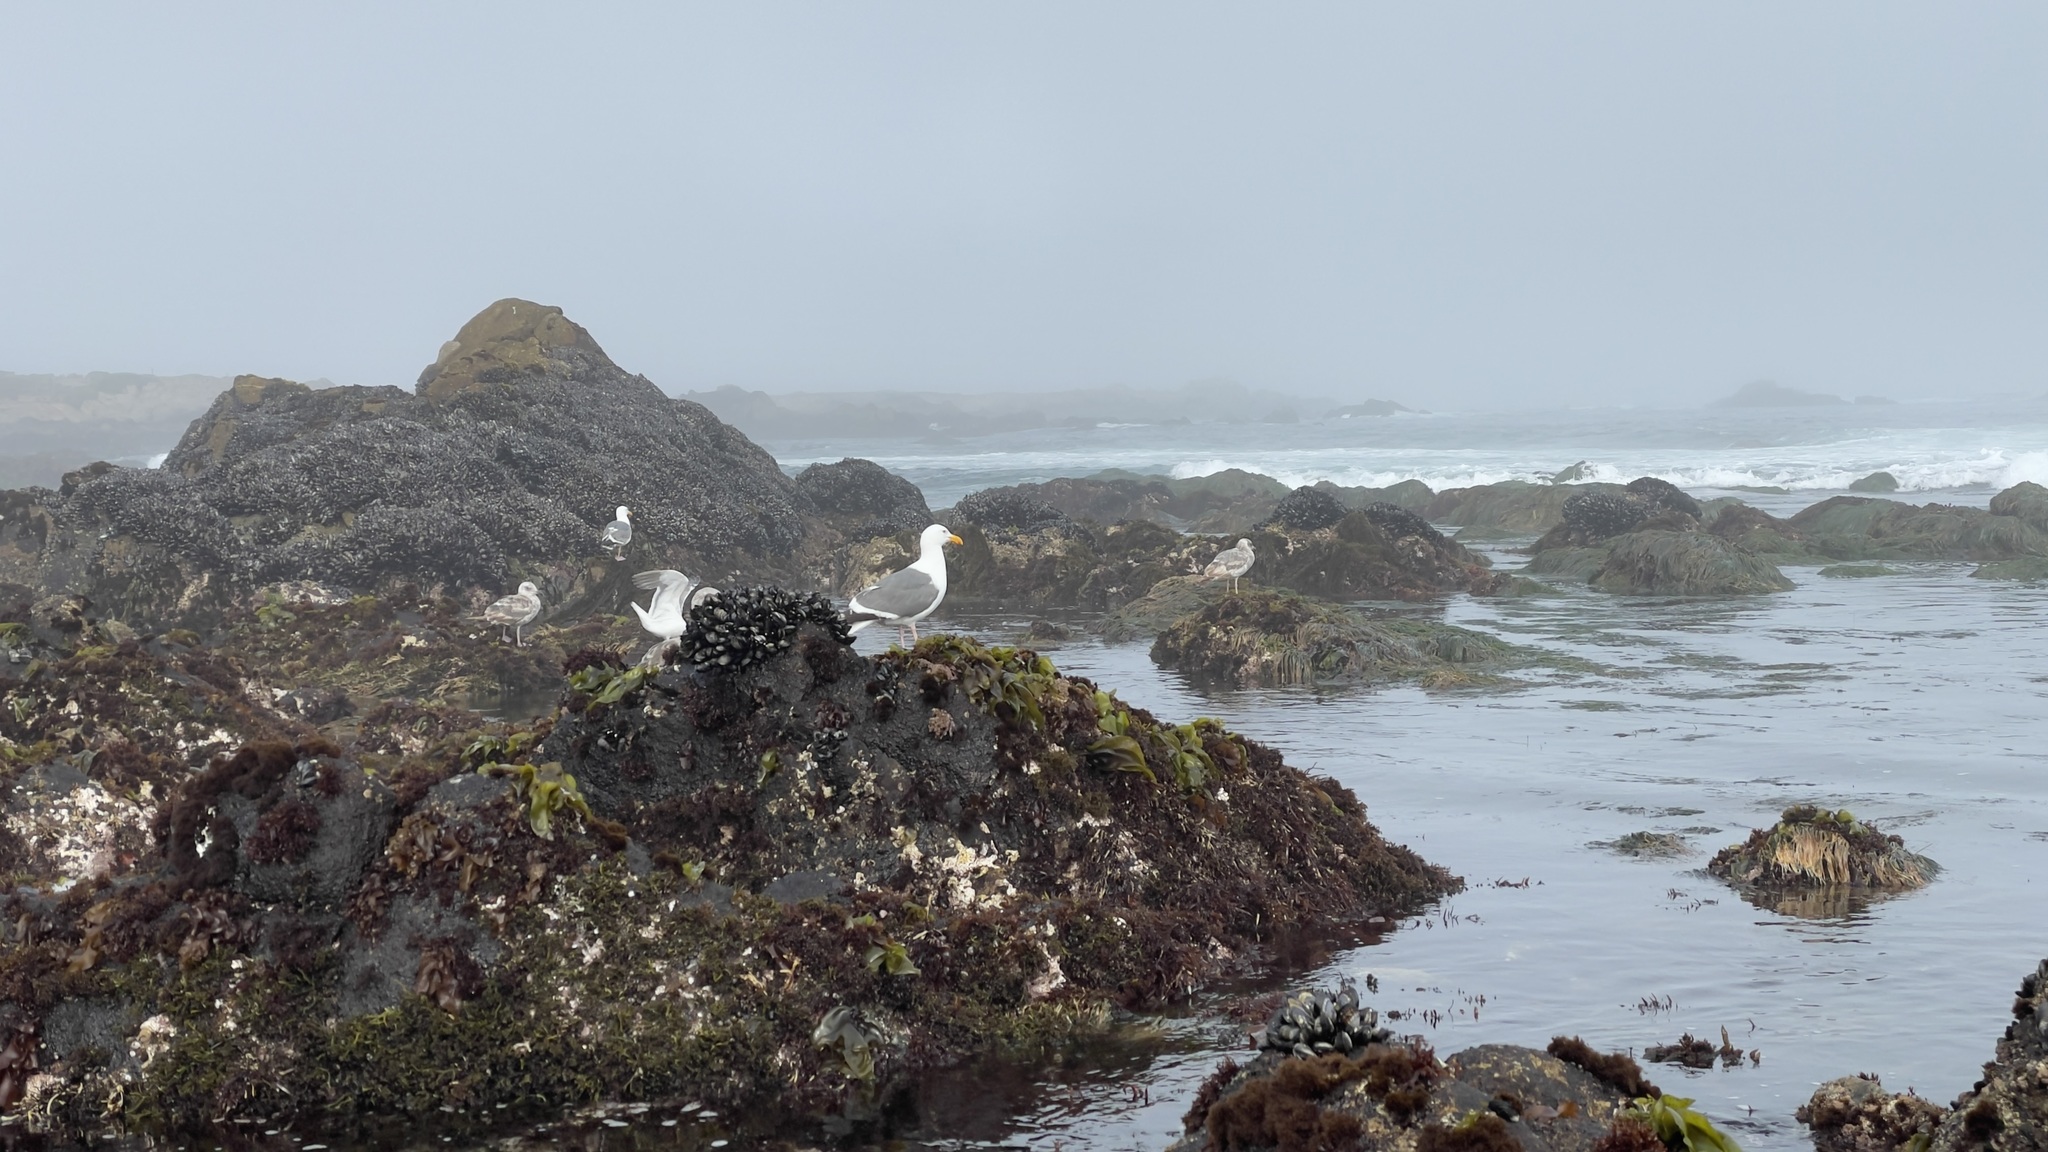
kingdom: Animalia
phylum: Chordata
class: Aves
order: Charadriiformes
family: Laridae
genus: Larus
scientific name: Larus occidentalis
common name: Western gull
